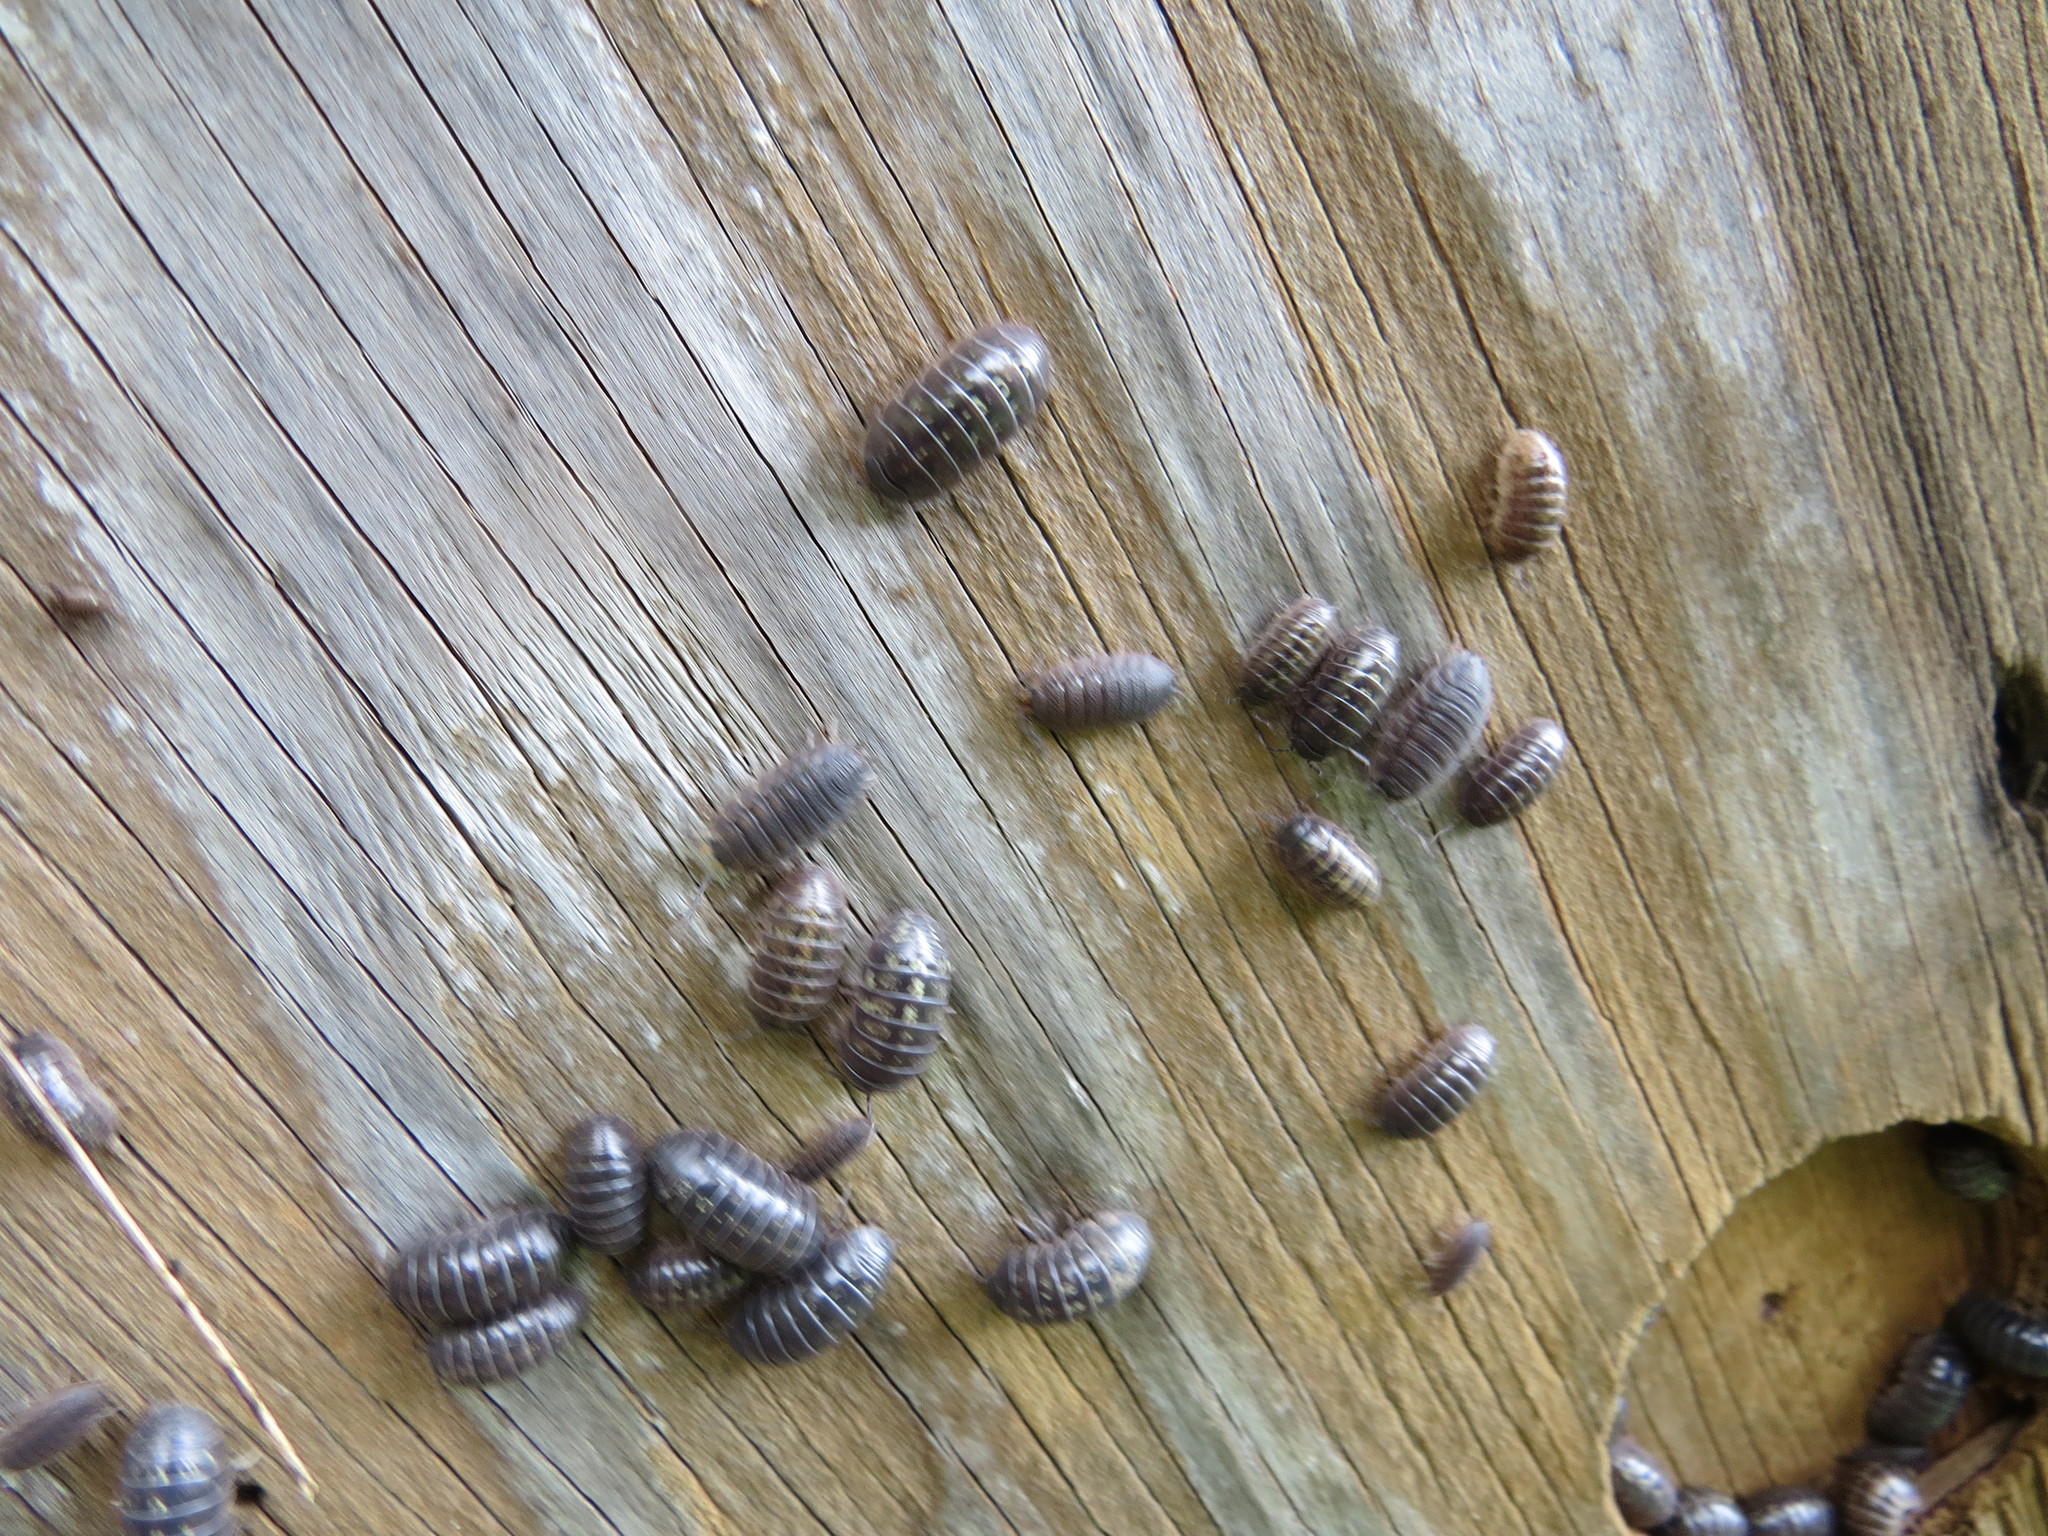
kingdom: Animalia
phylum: Arthropoda
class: Malacostraca
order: Isopoda
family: Armadillidiidae
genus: Armadillidium
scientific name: Armadillidium vulgare
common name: Common pill woodlouse
